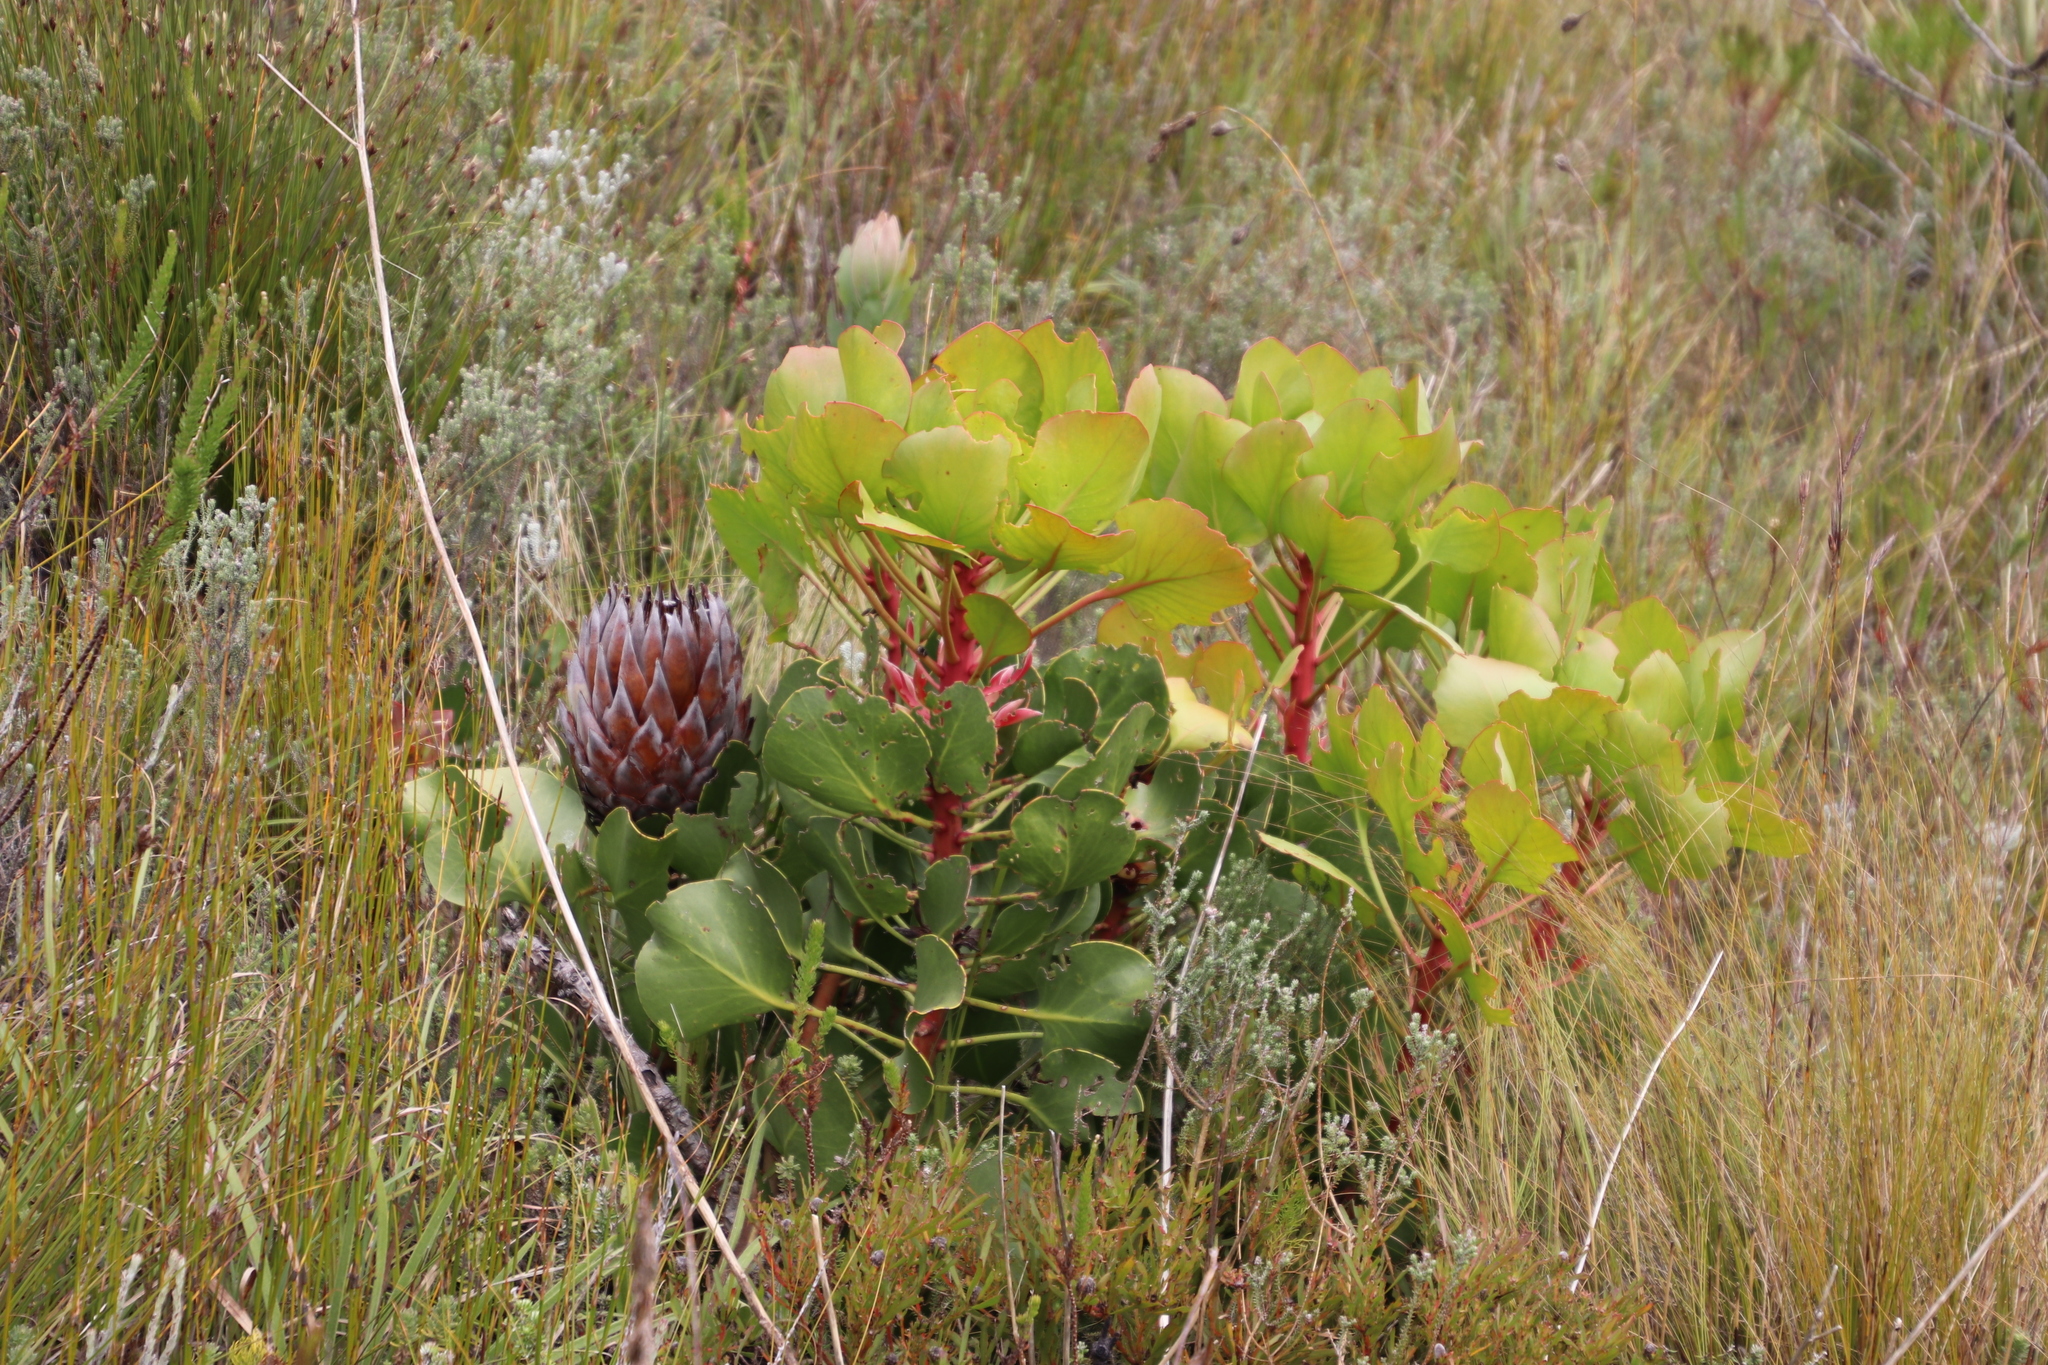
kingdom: Plantae
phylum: Tracheophyta
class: Magnoliopsida
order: Proteales
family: Proteaceae
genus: Protea
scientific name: Protea cynaroides
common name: King protea
